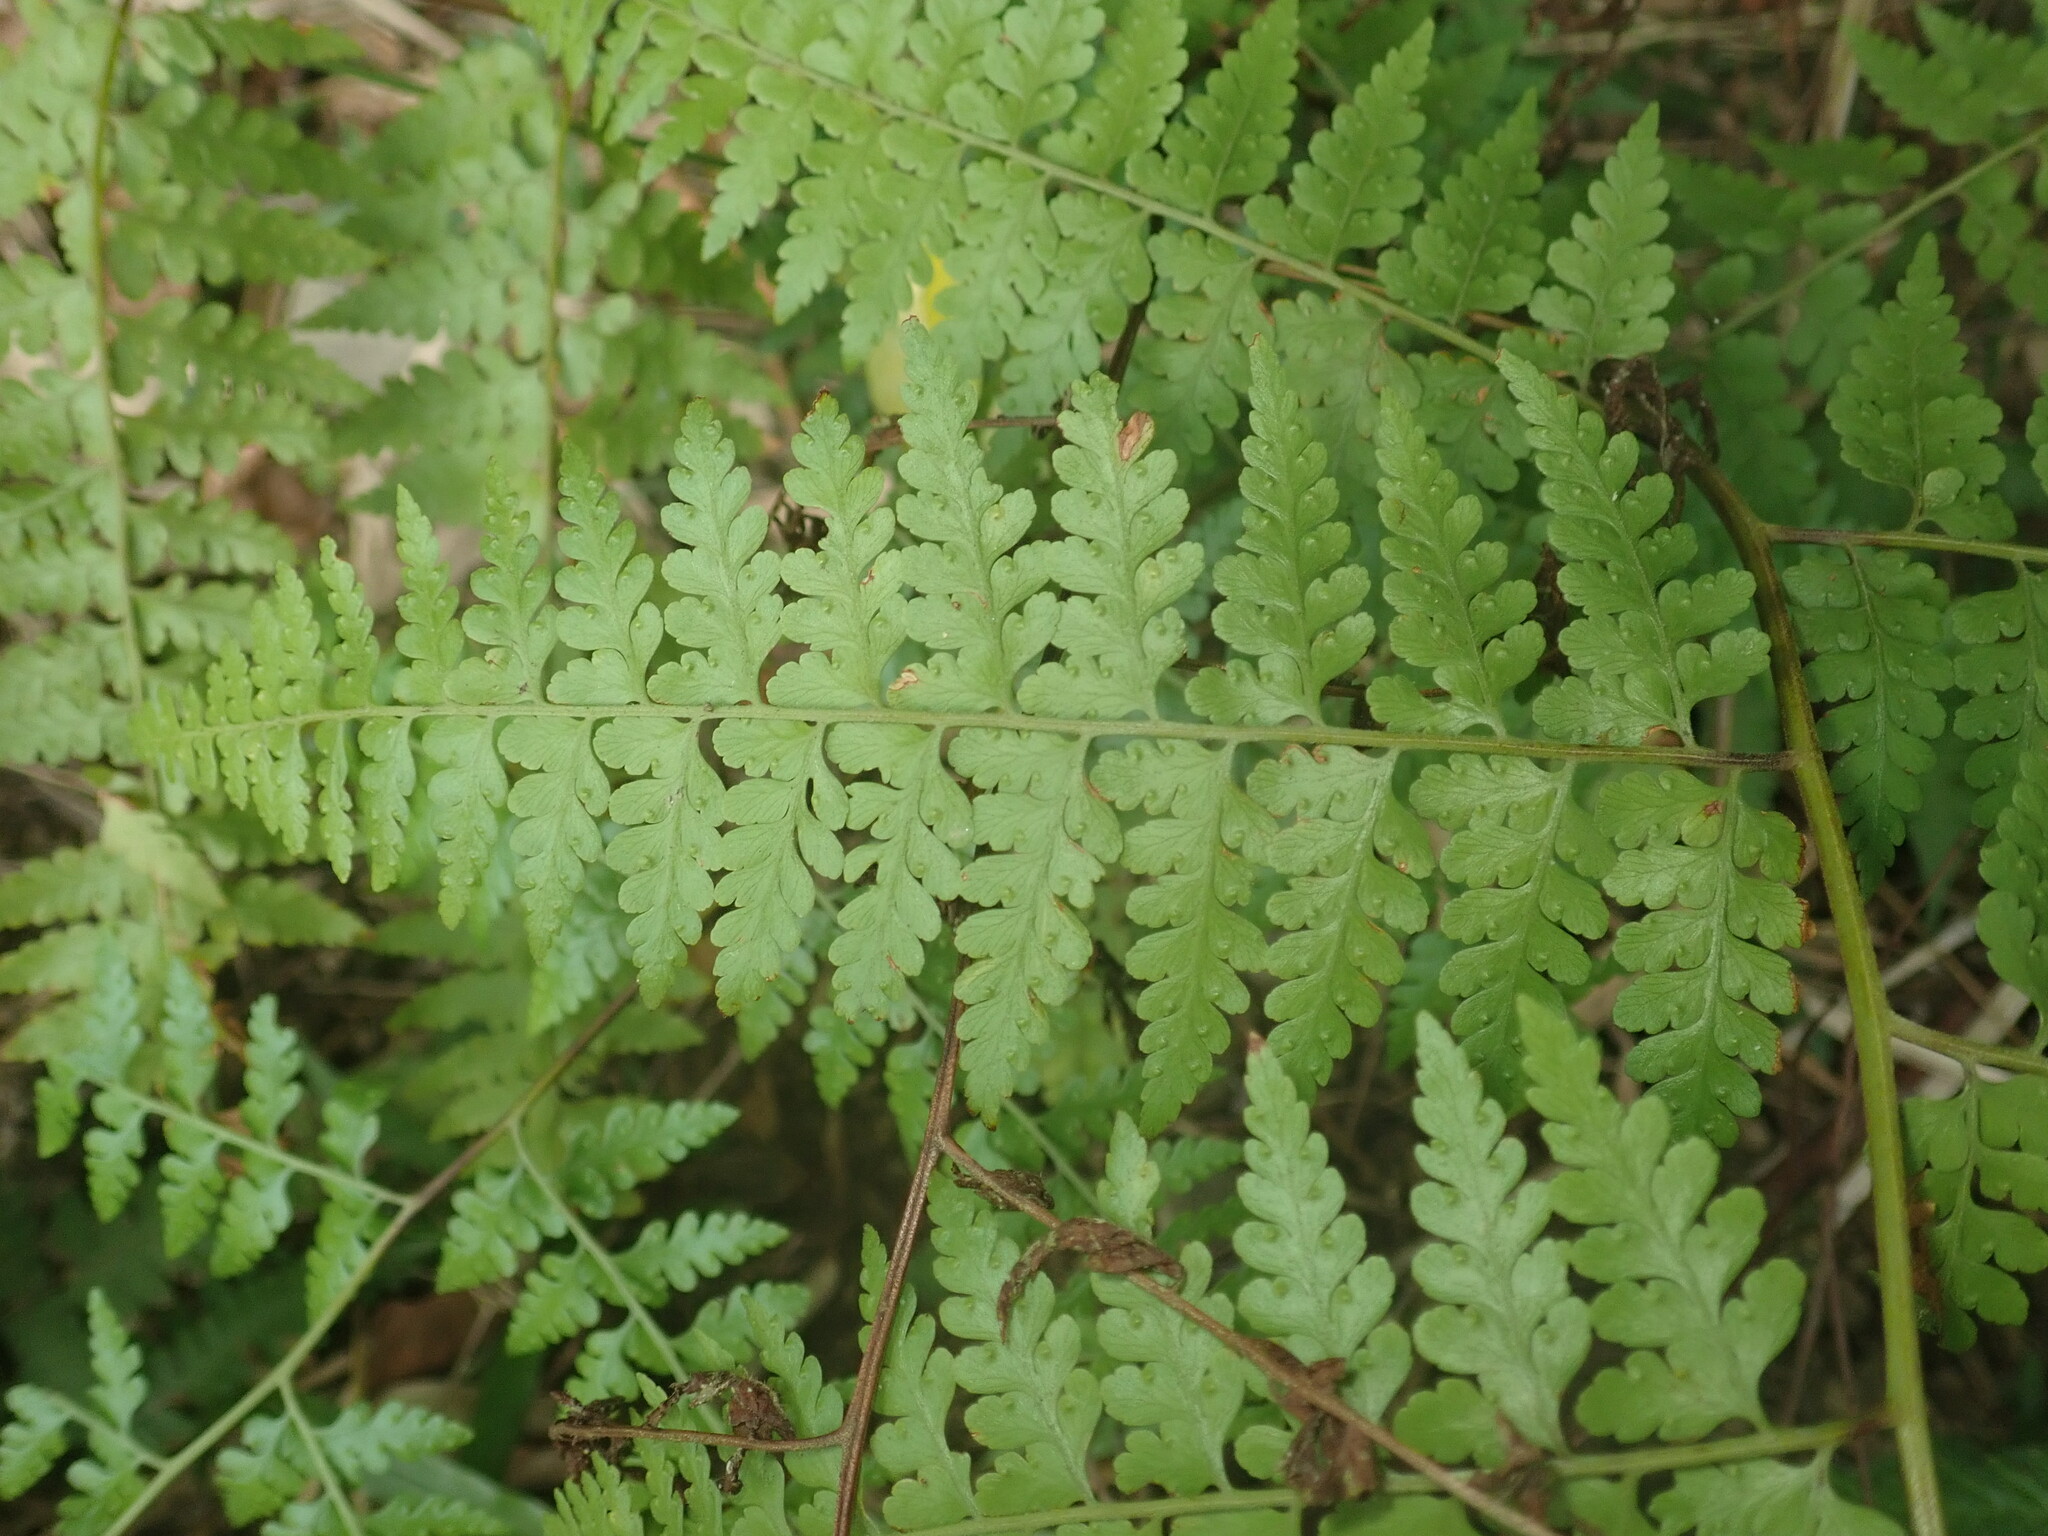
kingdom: Plantae
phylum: Tracheophyta
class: Polypodiopsida
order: Polypodiales
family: Dennstaedtiaceae
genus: Microlepia
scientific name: Microlepia nepalensis
